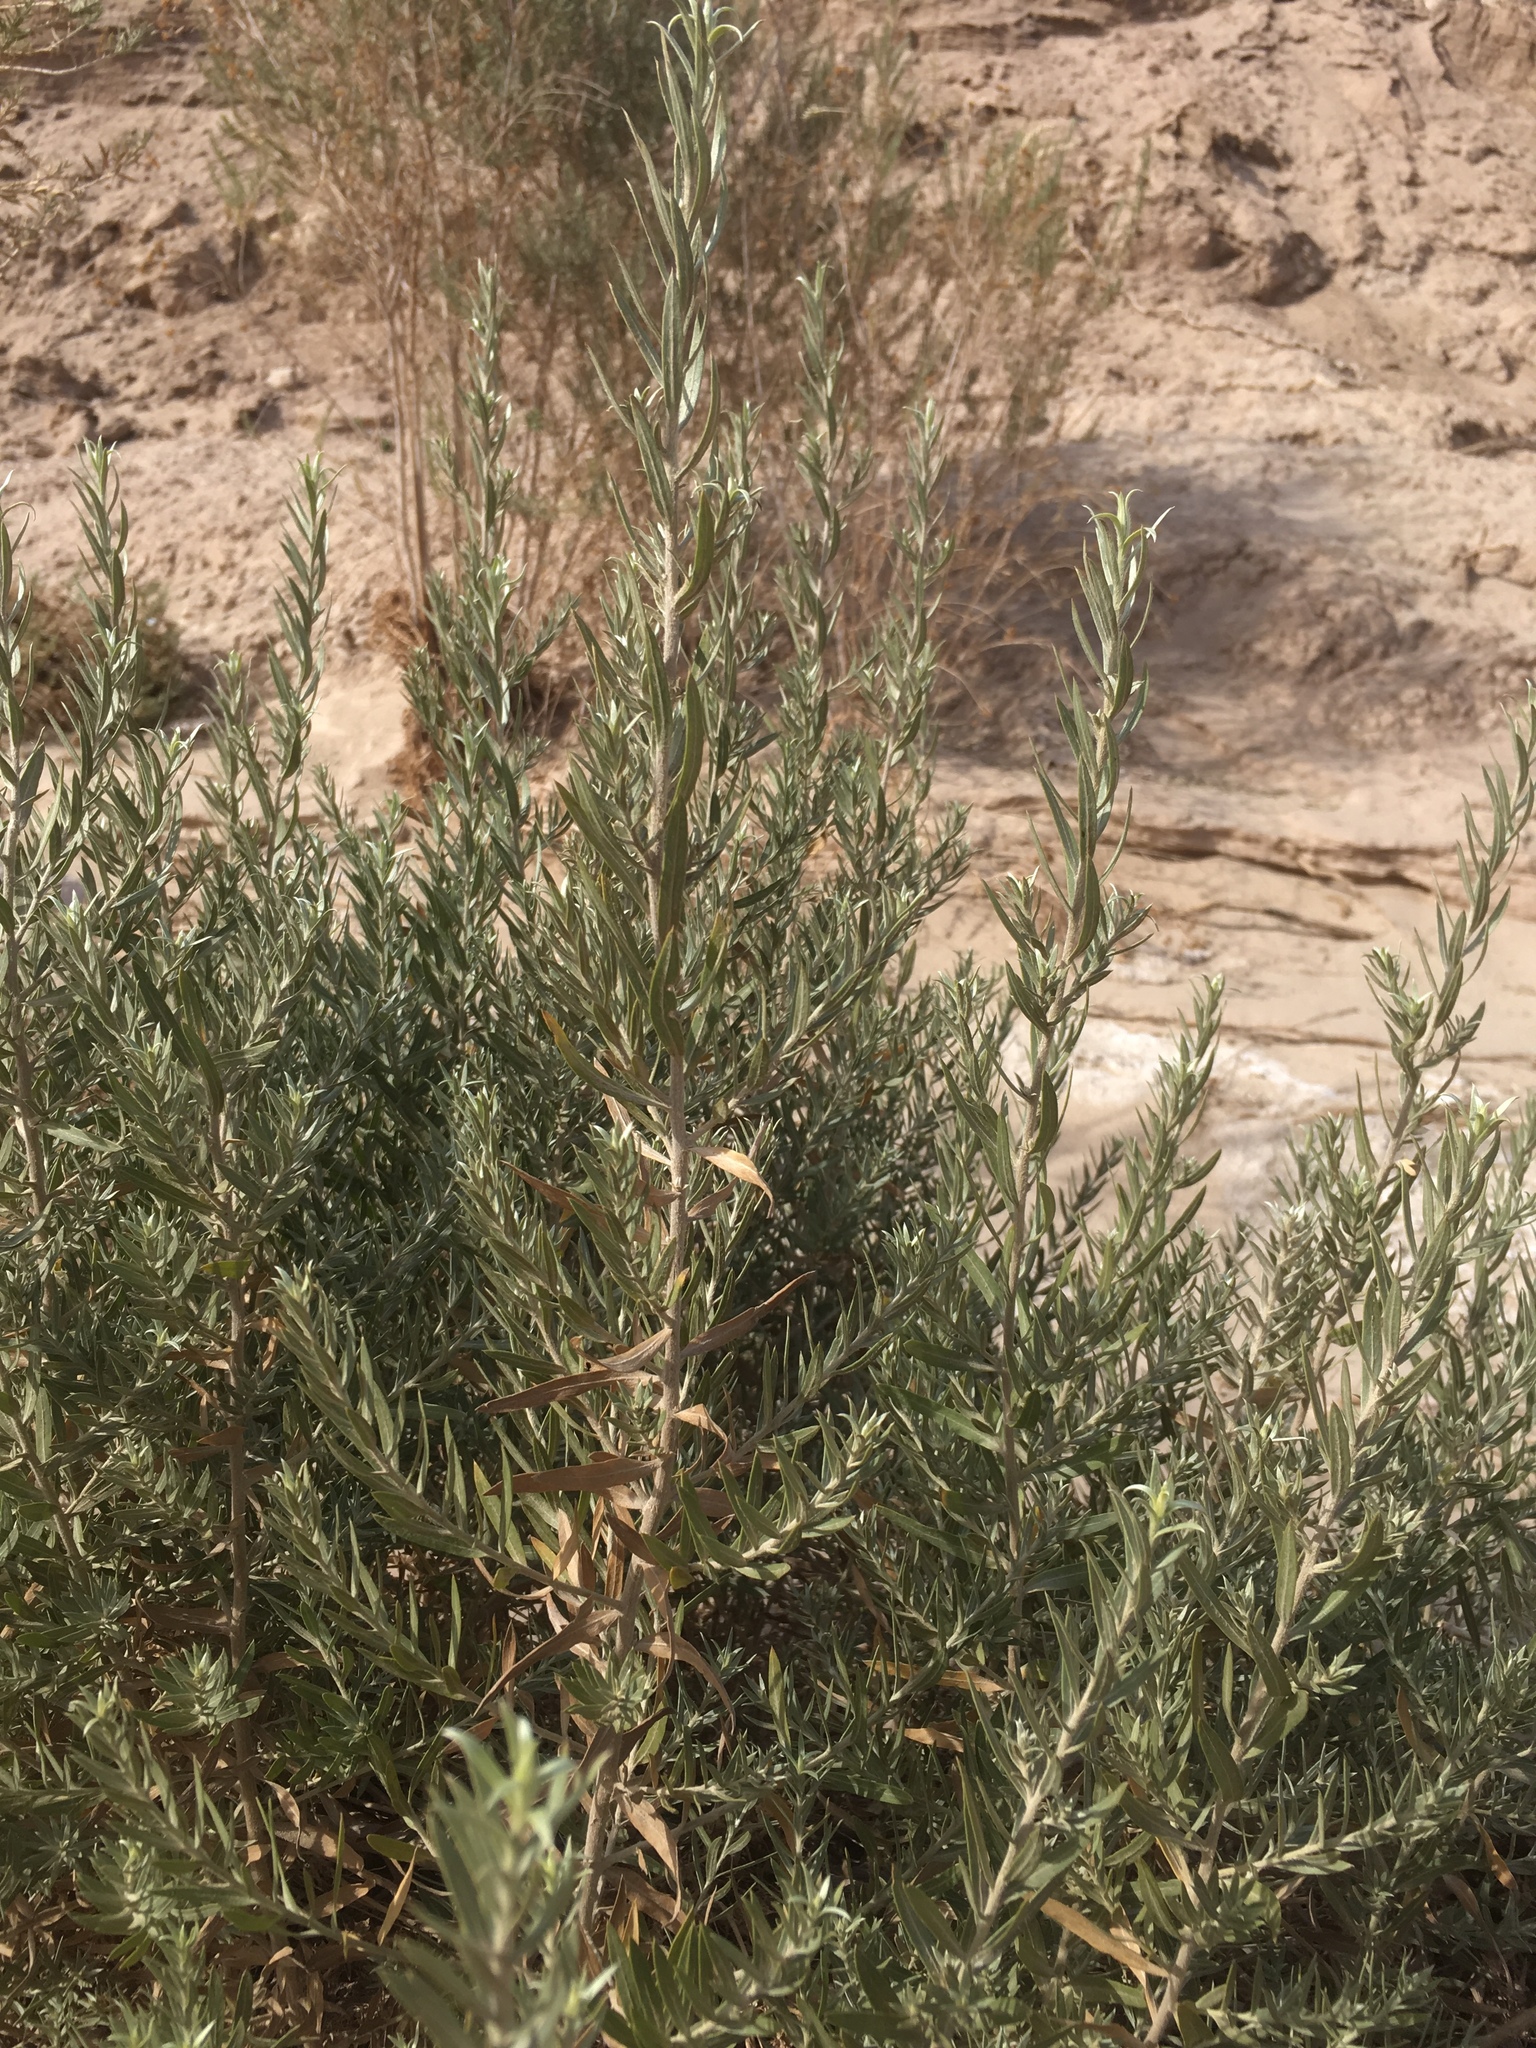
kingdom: Plantae
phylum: Tracheophyta
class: Magnoliopsida
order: Asterales
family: Asteraceae
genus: Pluchea
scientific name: Pluchea sericea
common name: Arrow-weed
